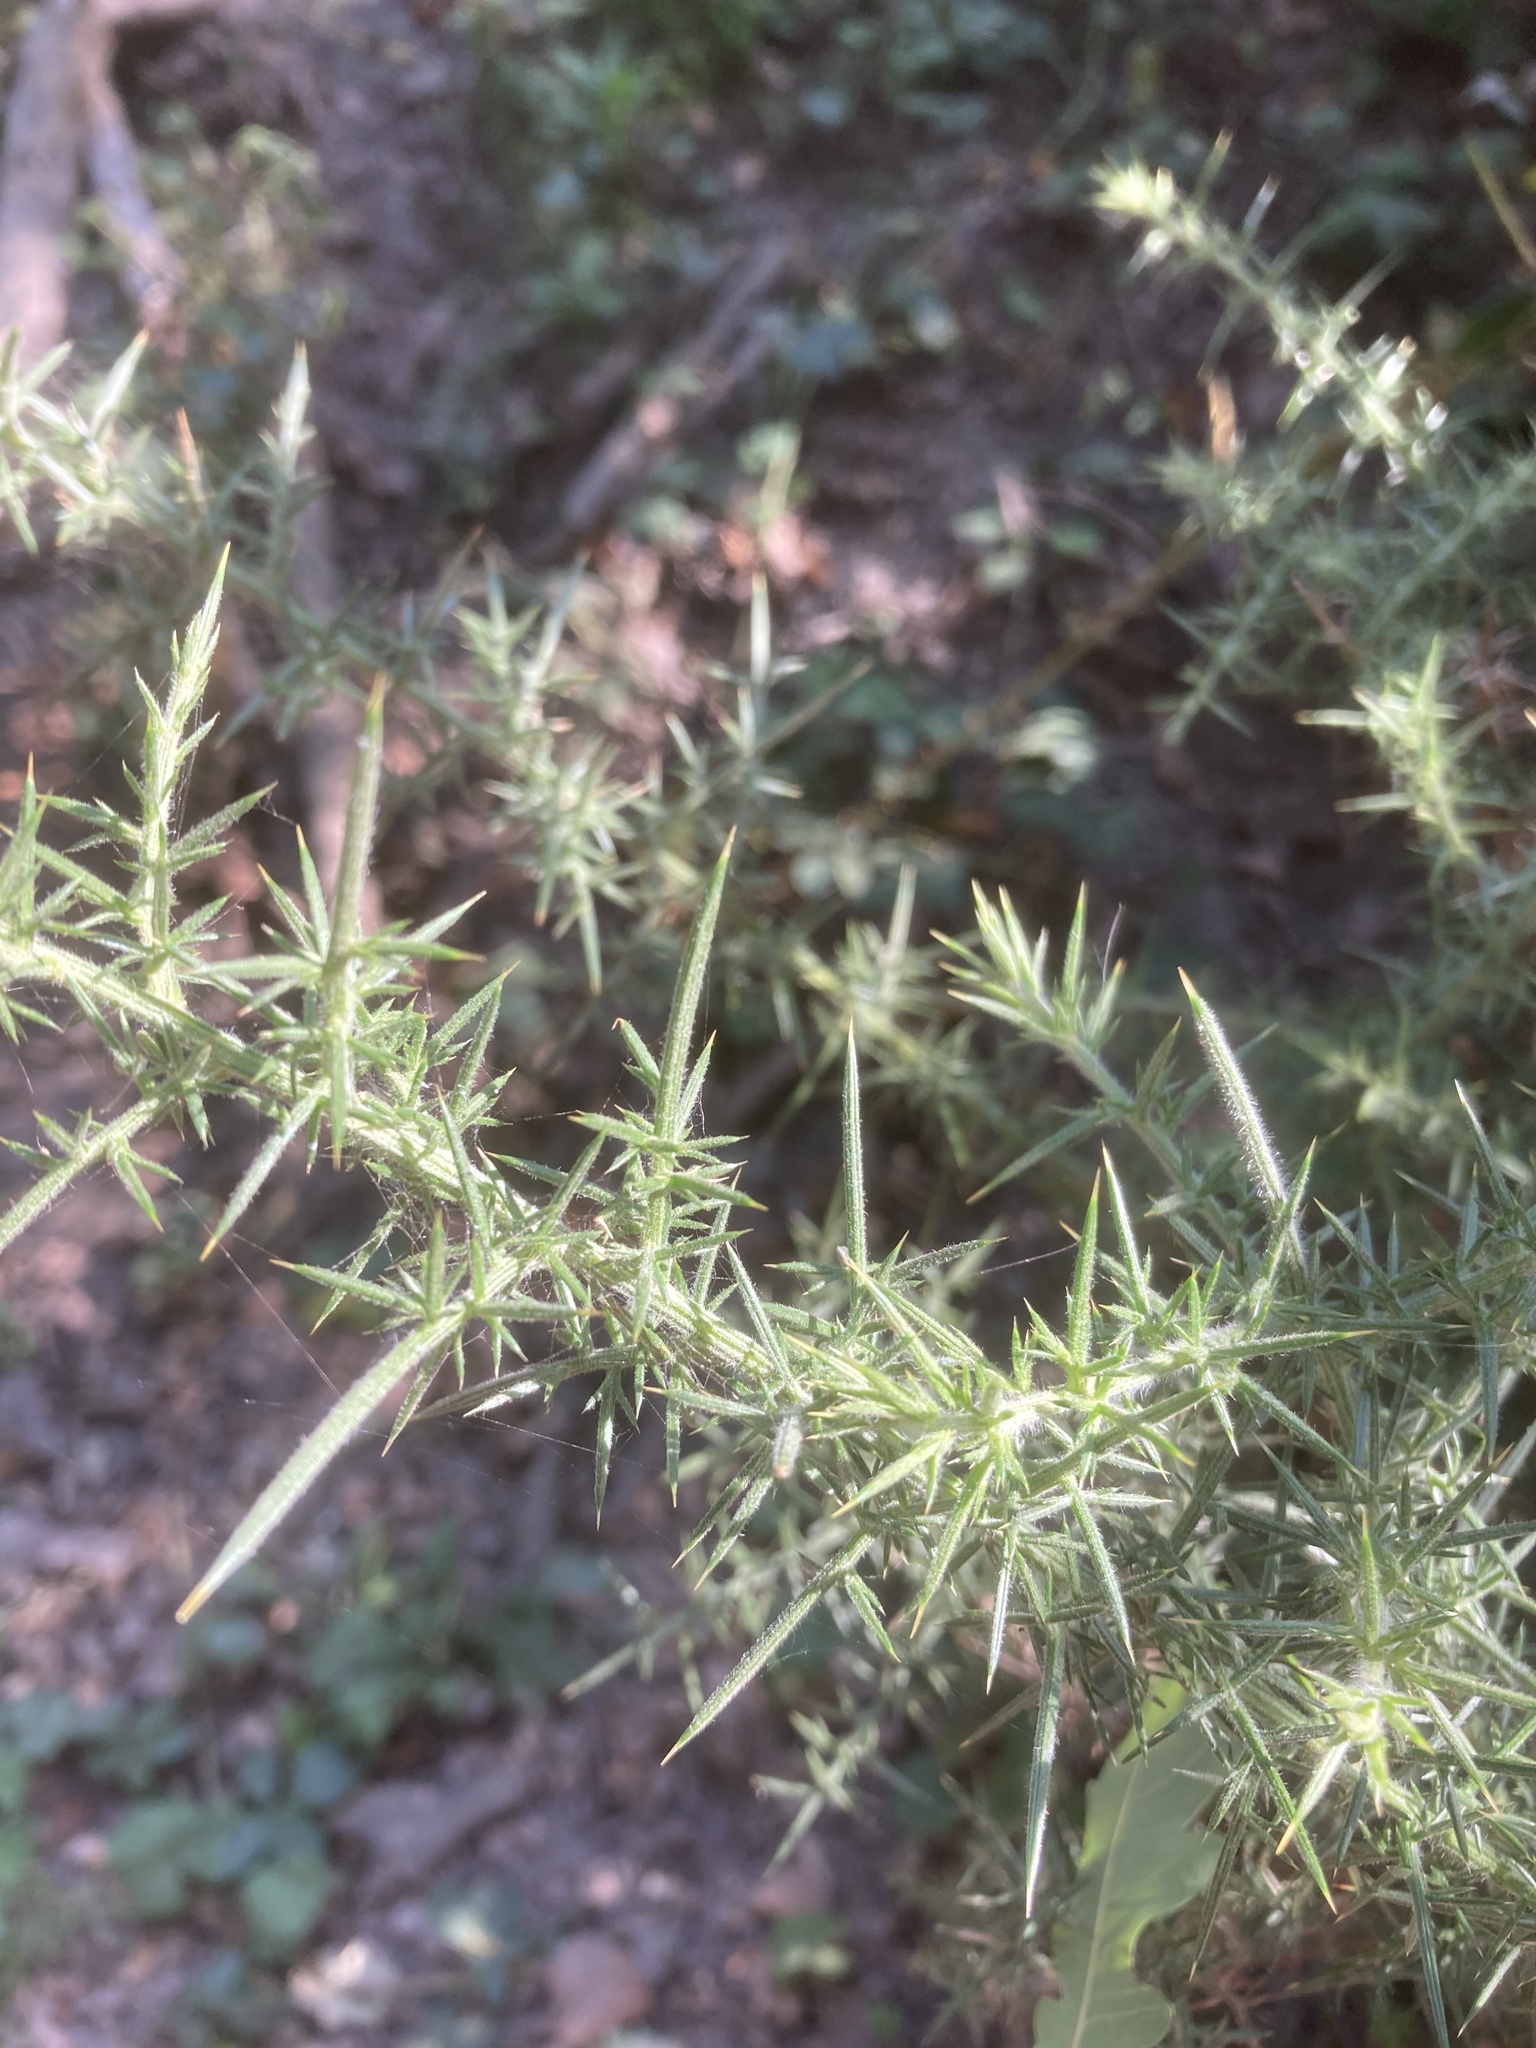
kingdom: Plantae
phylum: Tracheophyta
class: Magnoliopsida
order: Fabales
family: Fabaceae
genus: Ulex
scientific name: Ulex europaeus
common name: Common gorse
